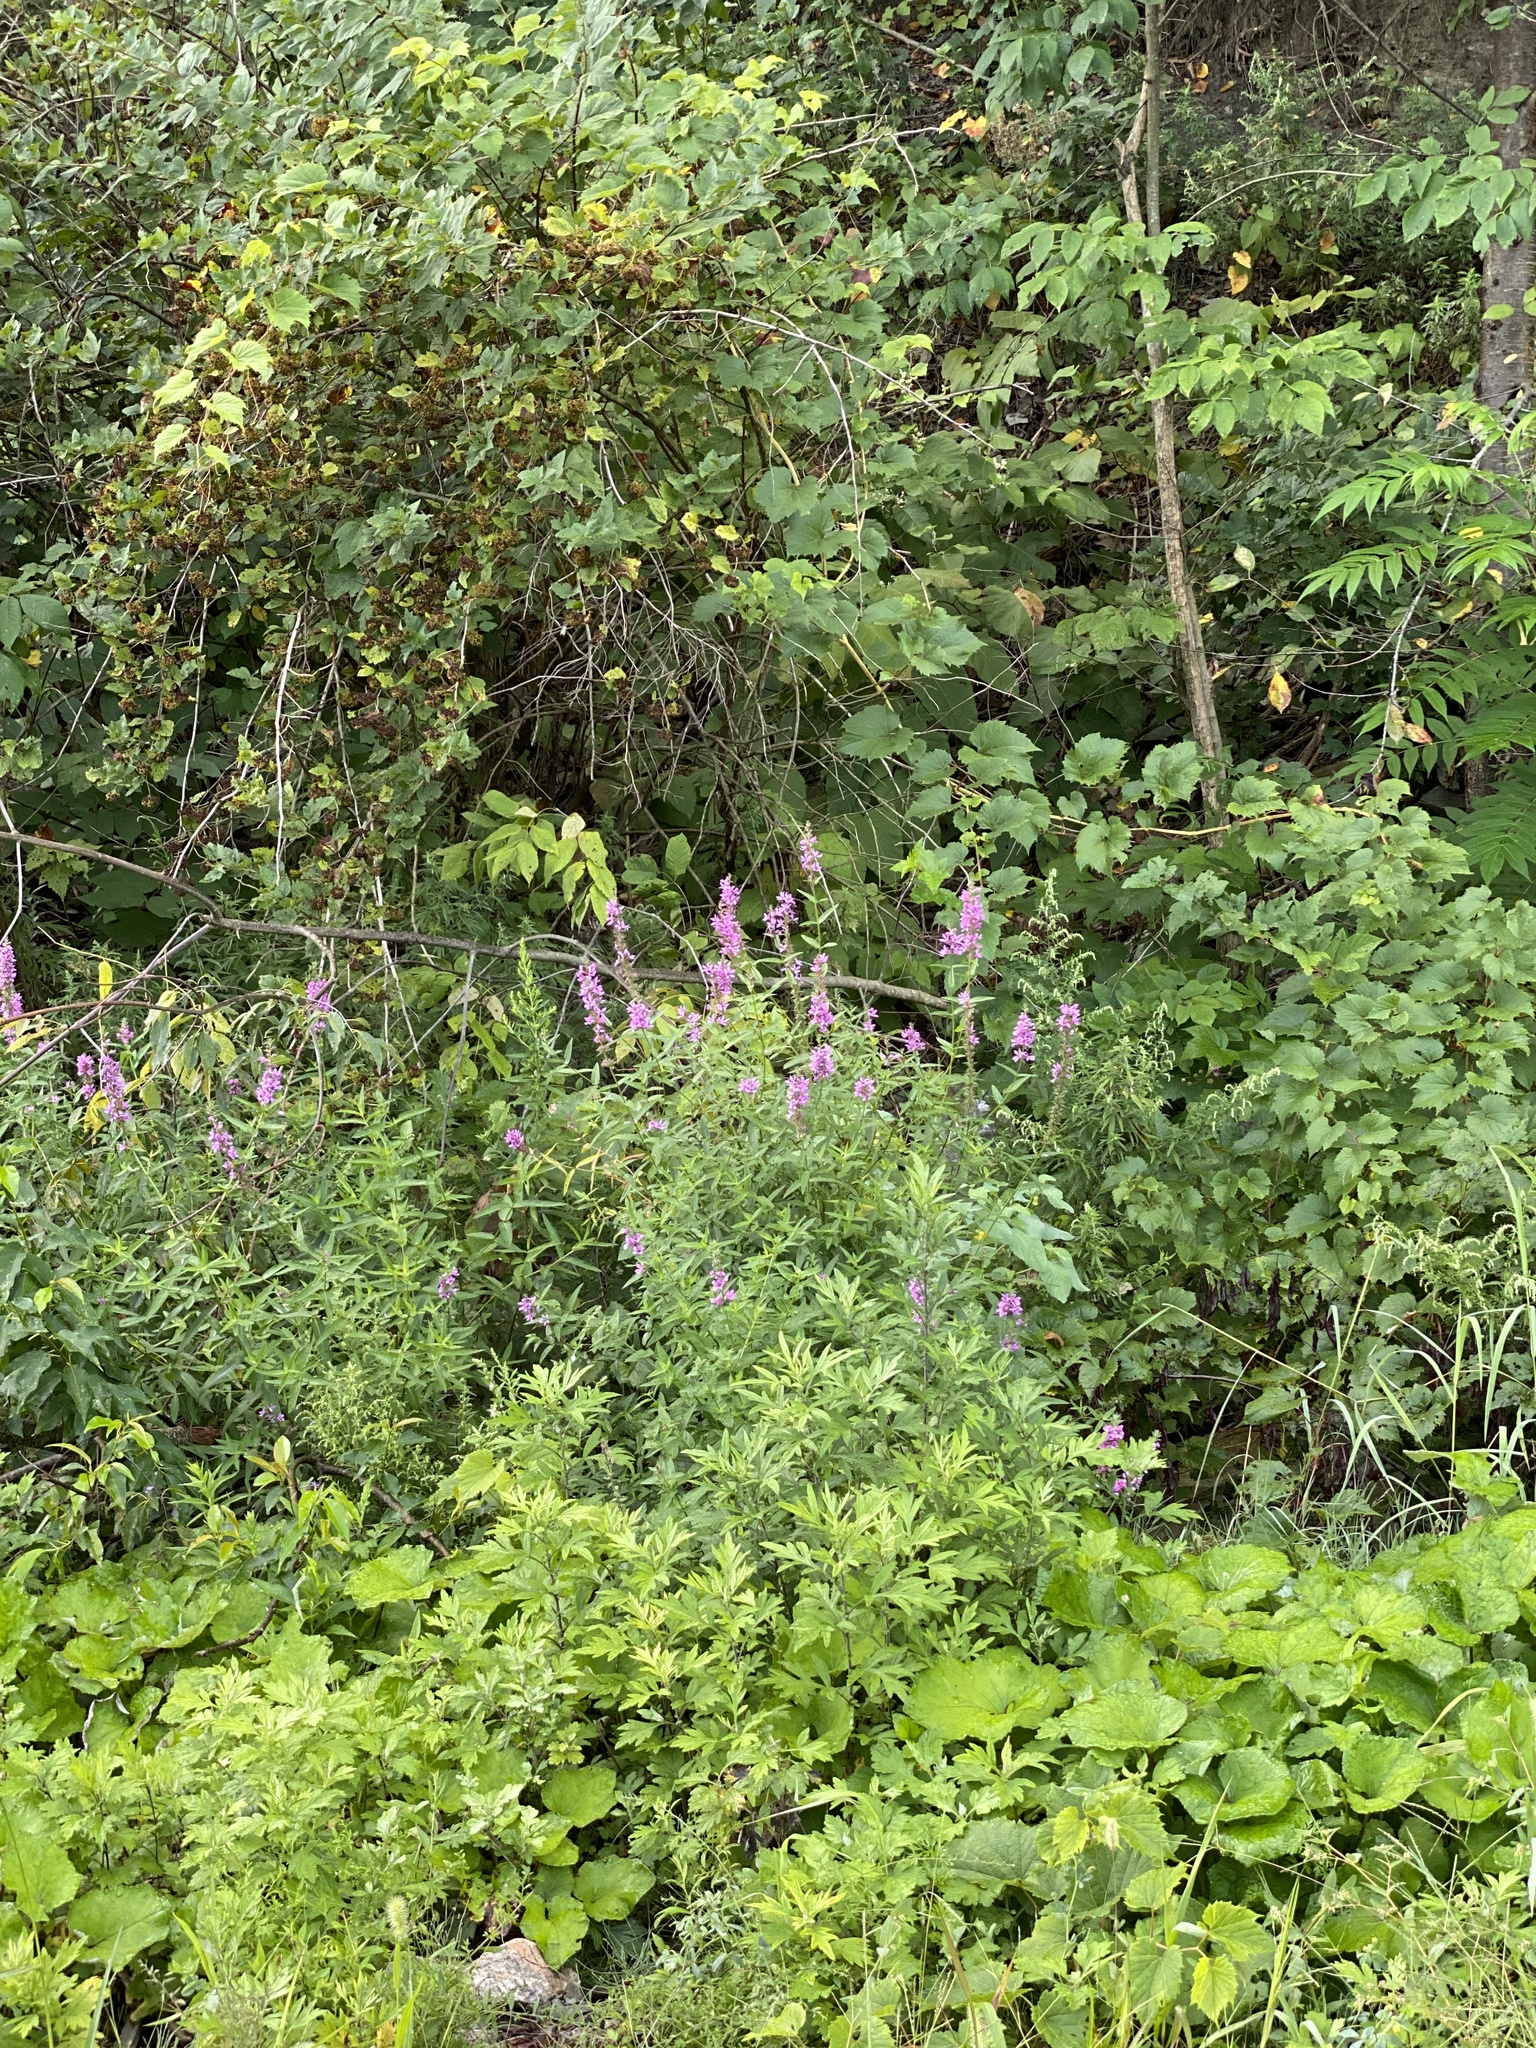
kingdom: Plantae
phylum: Tracheophyta
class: Magnoliopsida
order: Myrtales
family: Lythraceae
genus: Lythrum
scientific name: Lythrum salicaria
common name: Purple loosestrife
